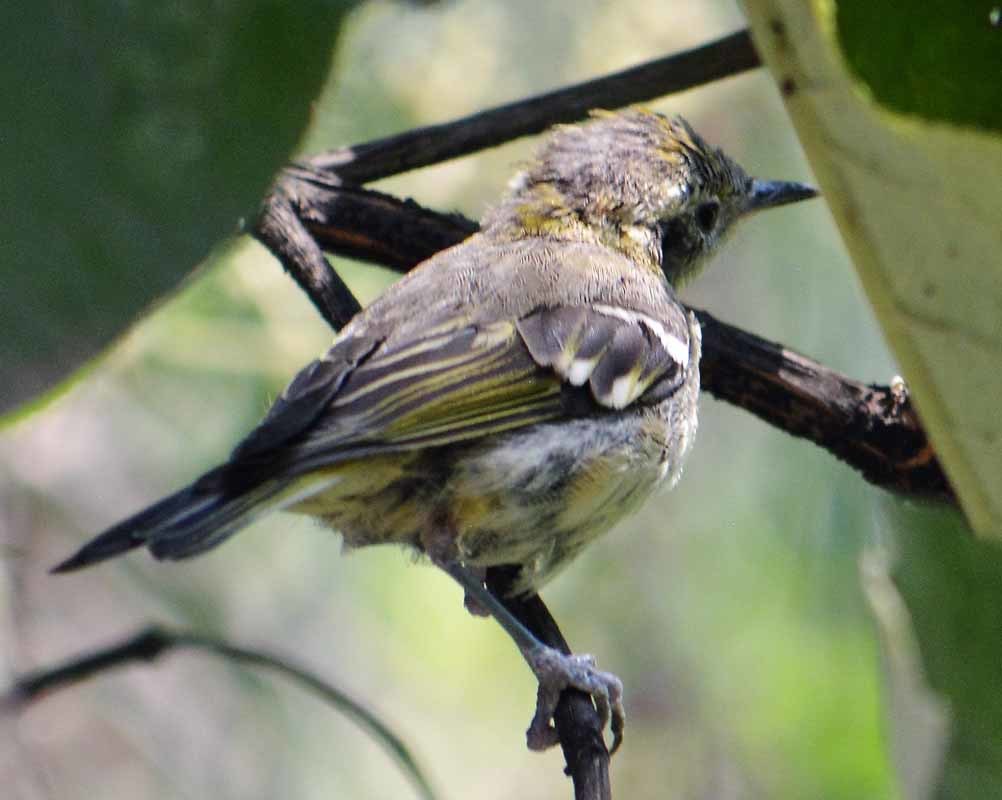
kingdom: Animalia
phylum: Chordata
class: Aves
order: Passeriformes
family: Parulidae
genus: Setophaga
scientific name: Setophaga coronata
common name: Myrtle warbler
